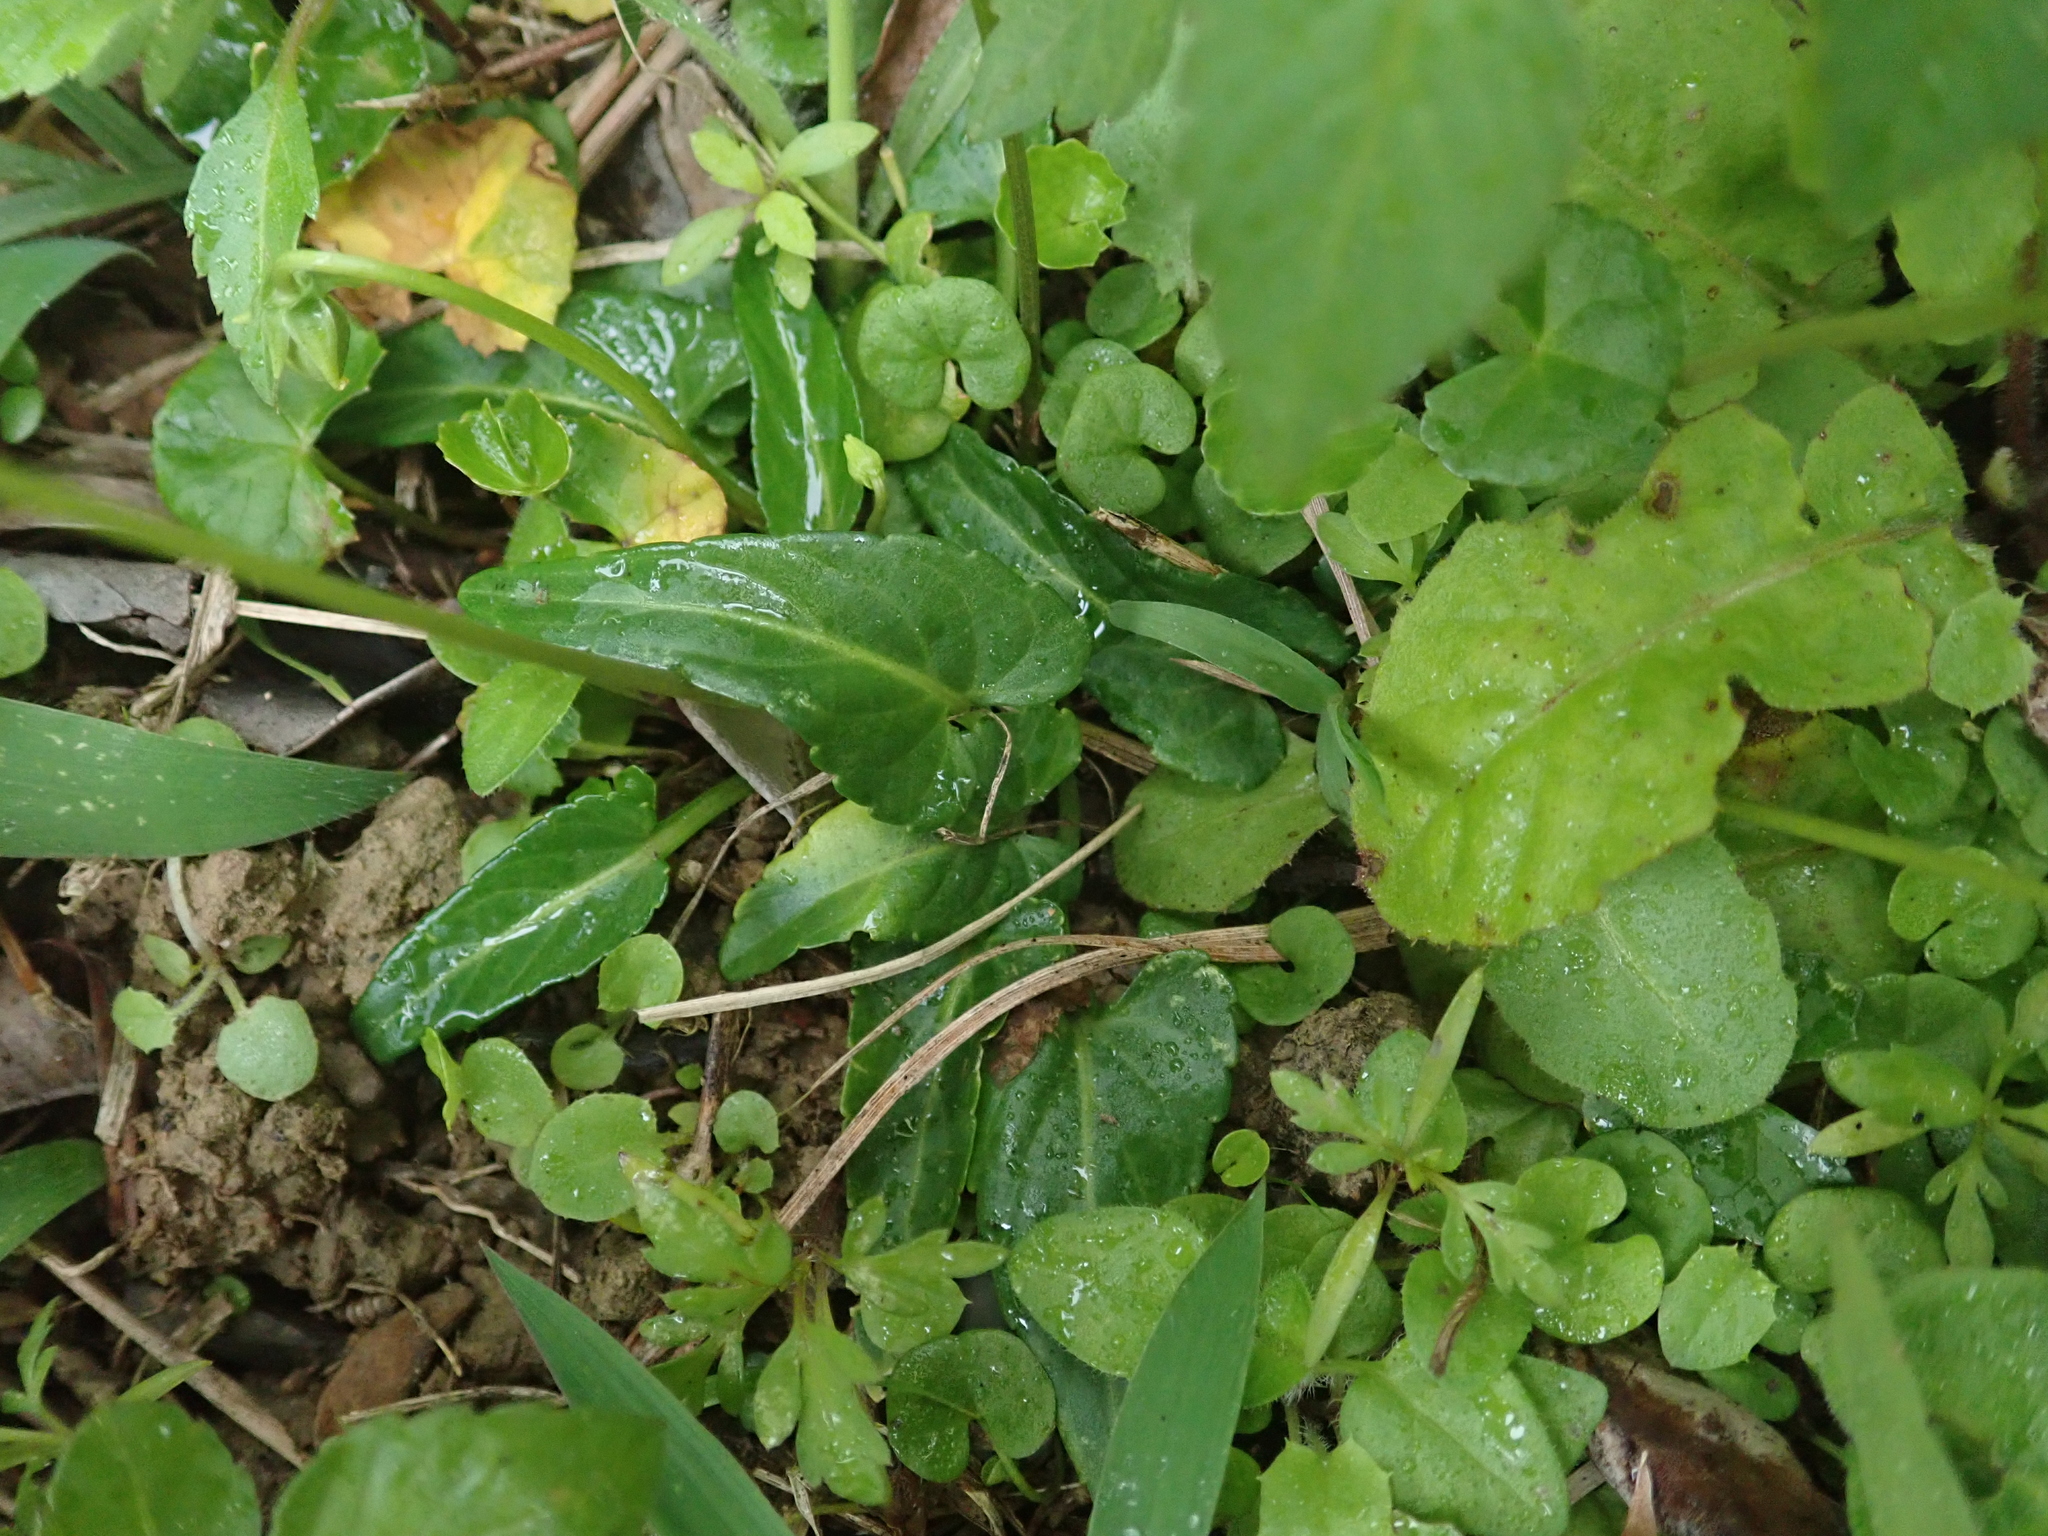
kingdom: Plantae
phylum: Tracheophyta
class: Magnoliopsida
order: Malpighiales
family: Violaceae
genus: Viola
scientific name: Viola betonicifolia
